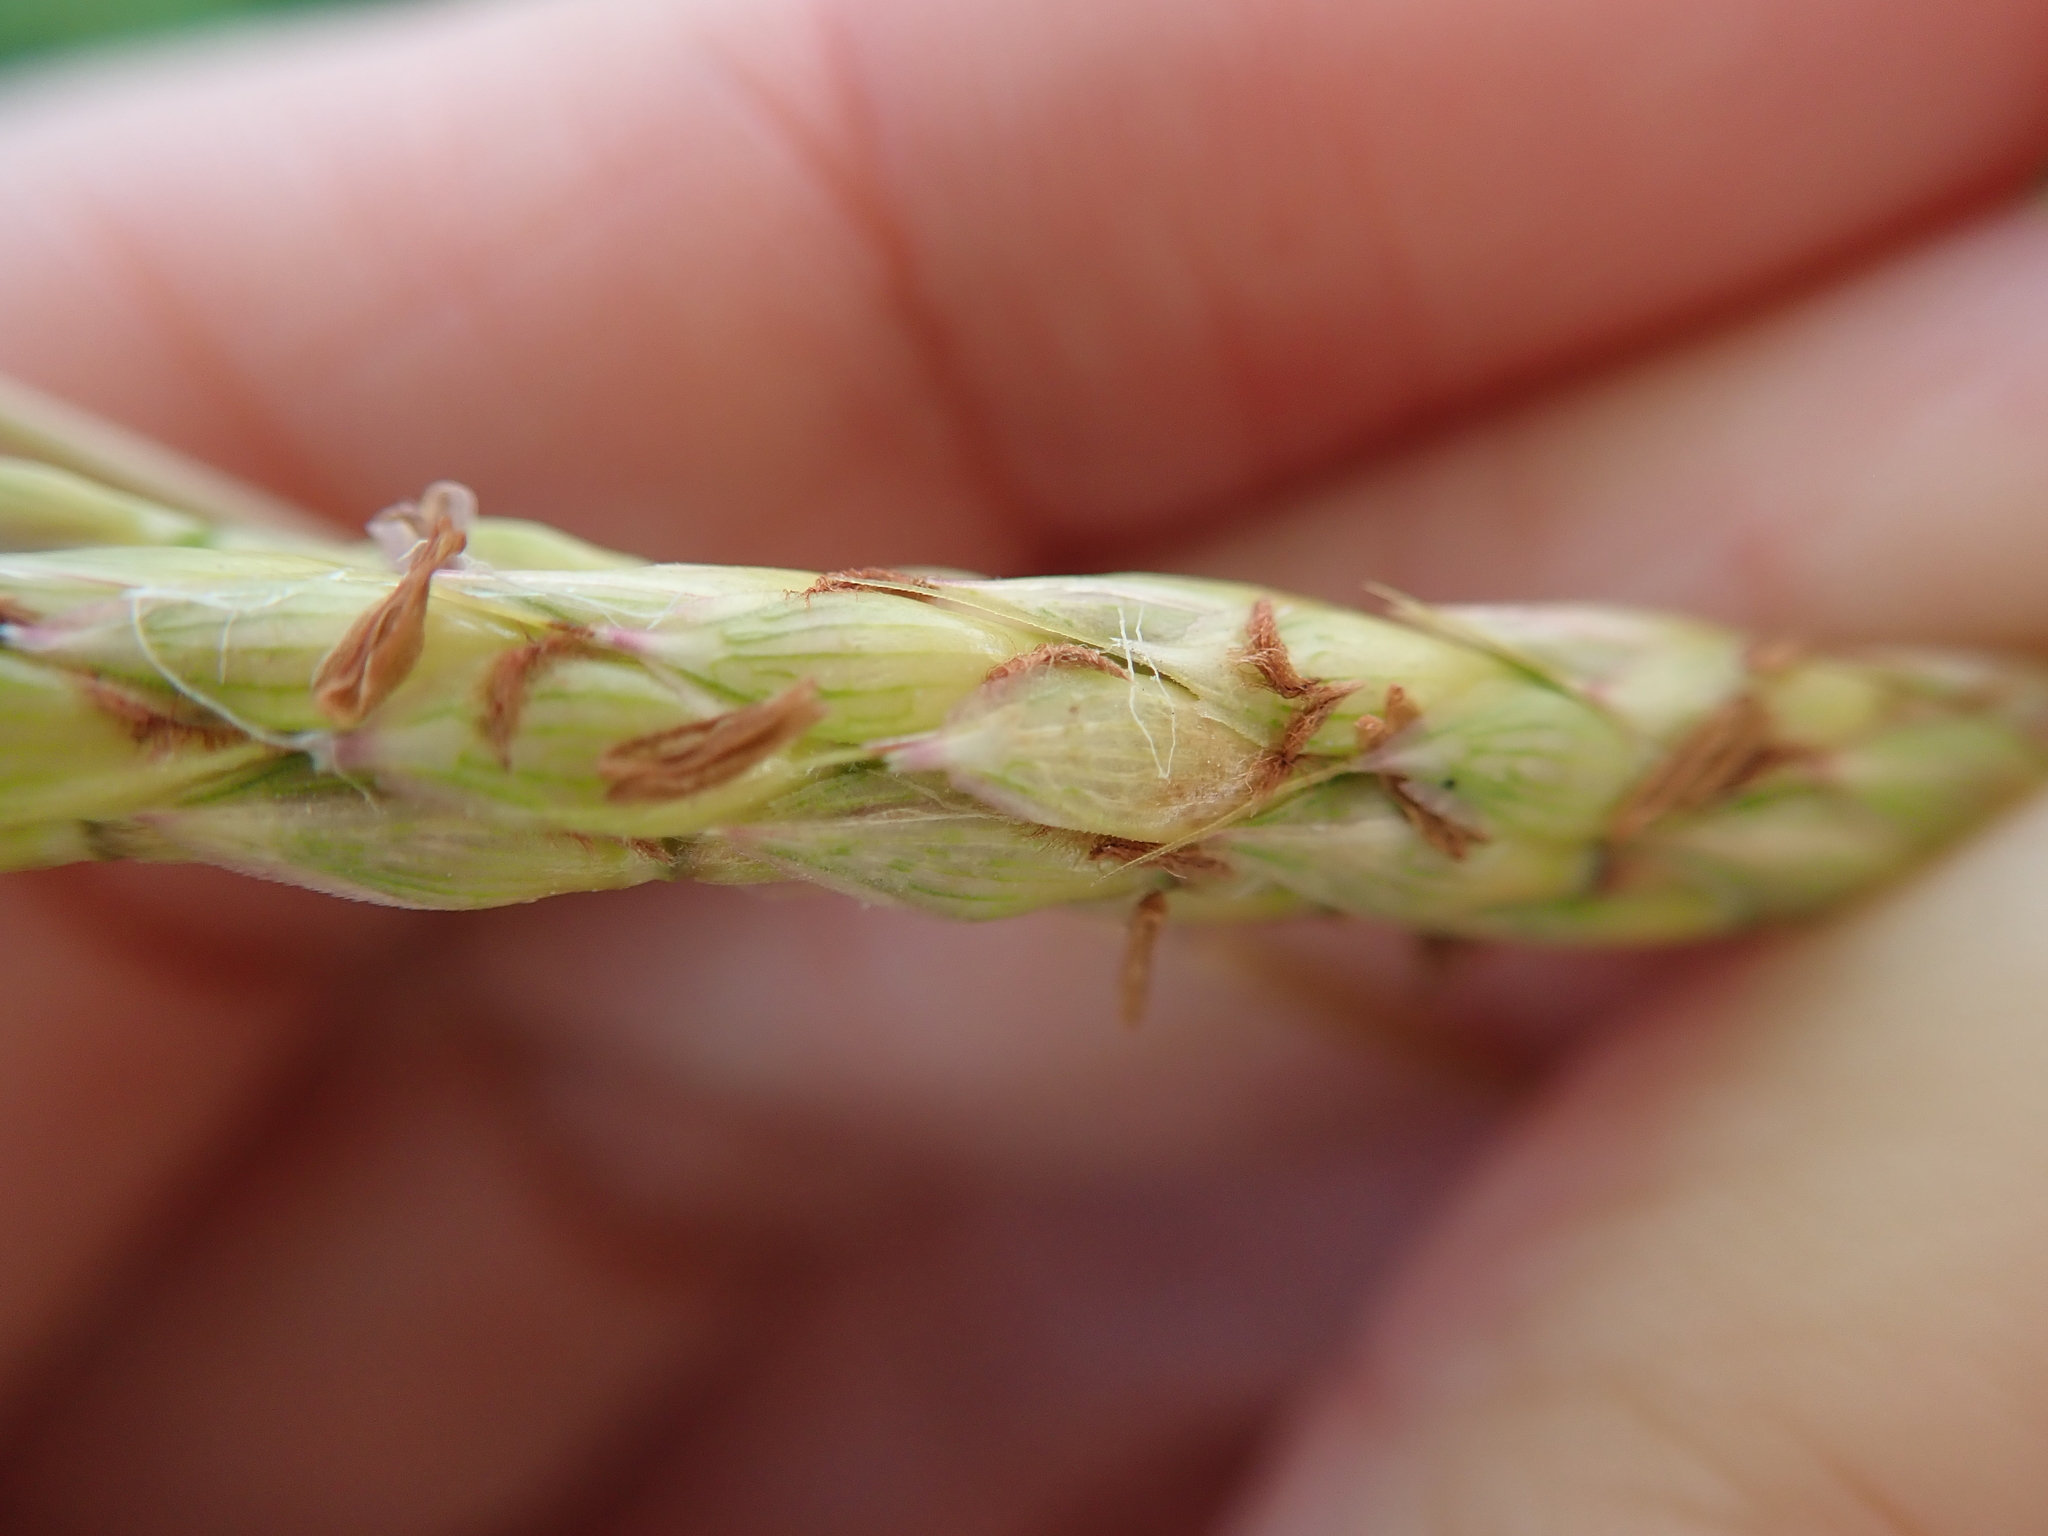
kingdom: Plantae
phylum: Tracheophyta
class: Liliopsida
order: Poales
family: Poaceae
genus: Ischaemum
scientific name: Ischaemum ciliare
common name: Grass
